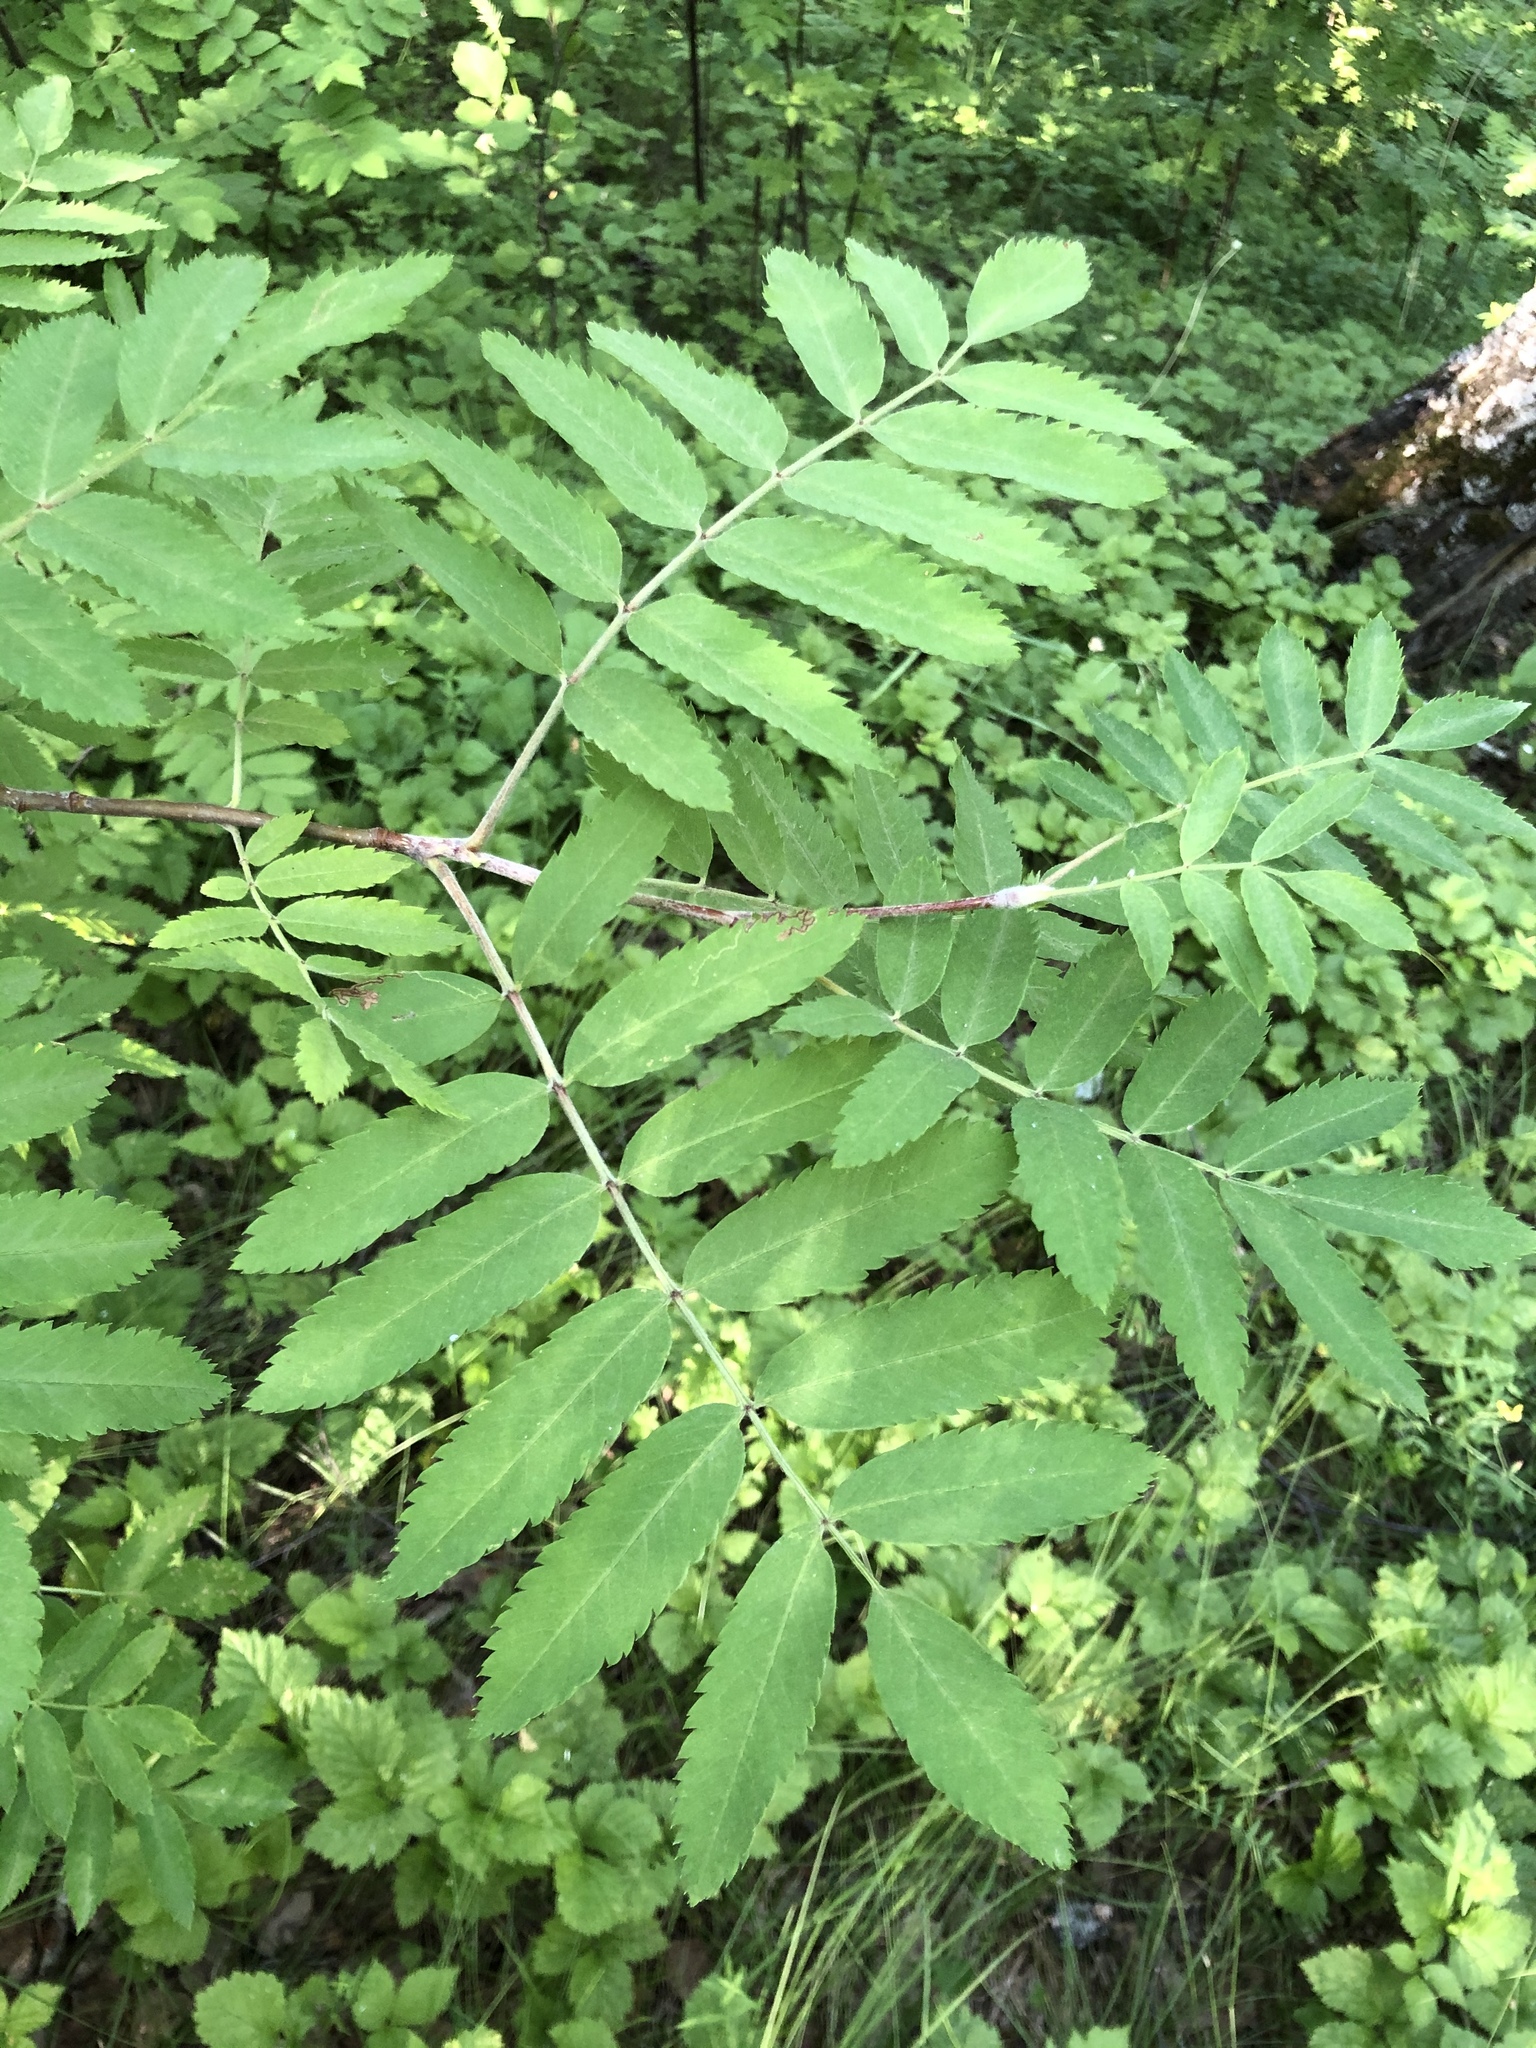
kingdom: Plantae
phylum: Tracheophyta
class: Magnoliopsida
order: Rosales
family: Rosaceae
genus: Sorbus
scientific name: Sorbus aucuparia
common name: Rowan
